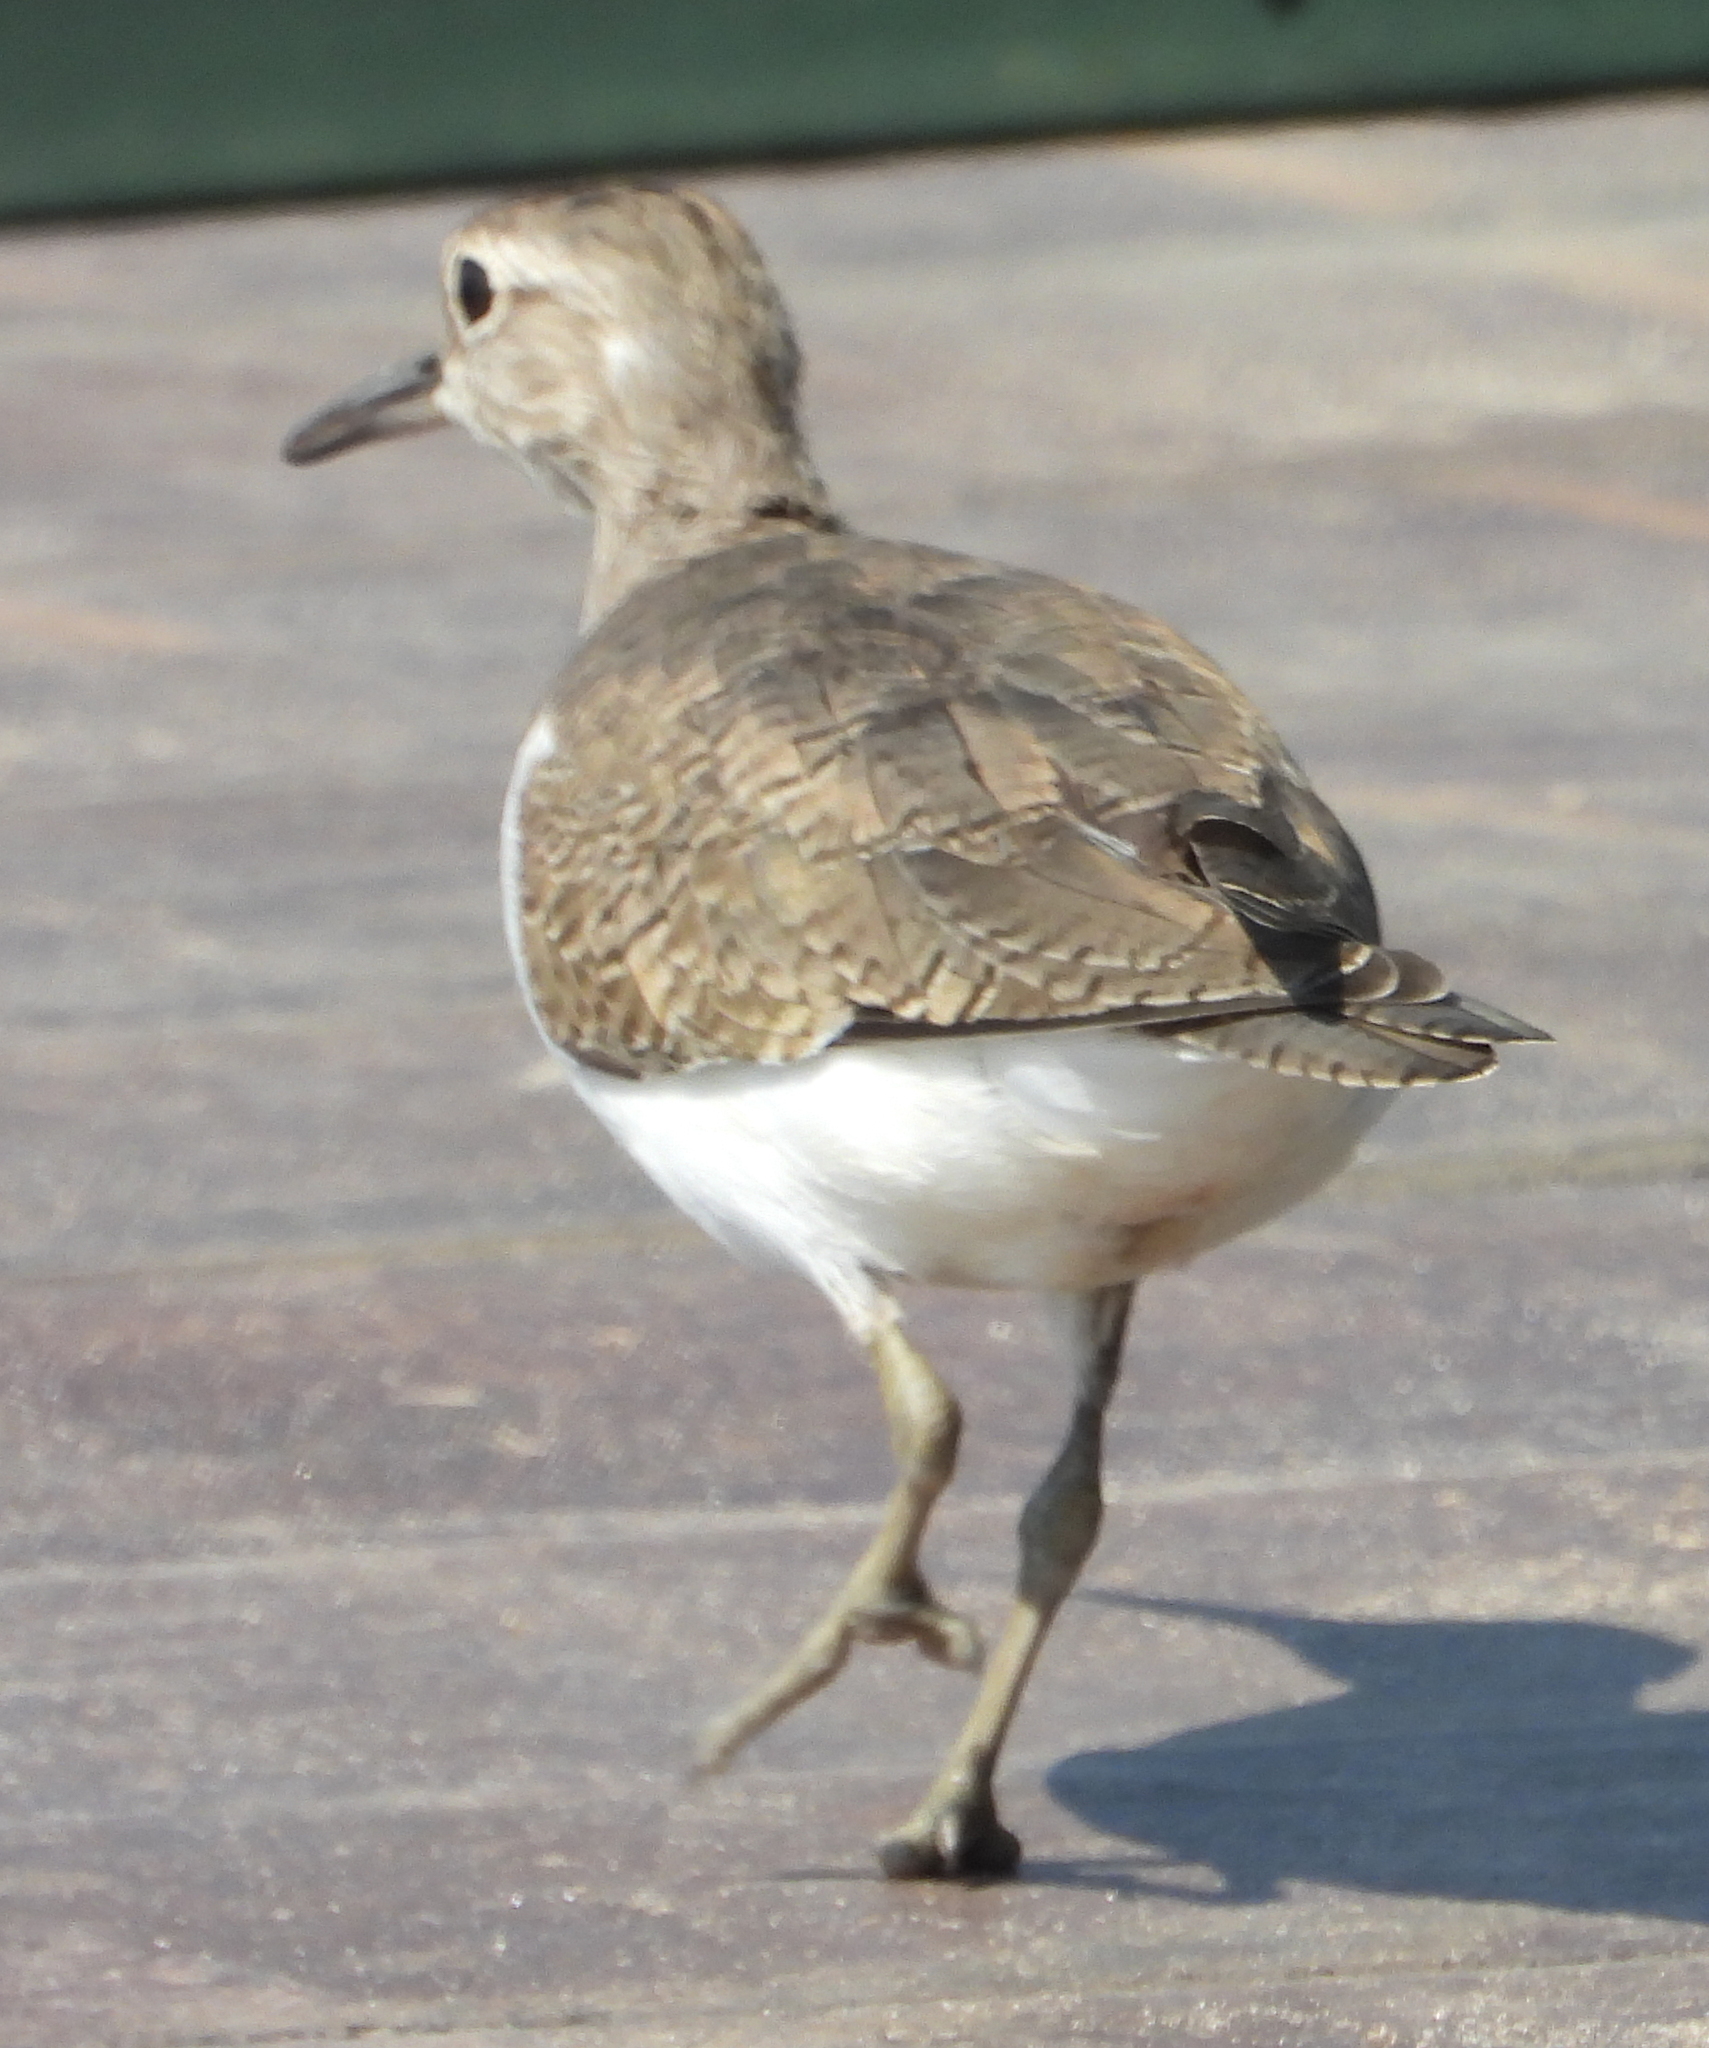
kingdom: Animalia
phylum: Chordata
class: Aves
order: Charadriiformes
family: Scolopacidae
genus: Actitis
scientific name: Actitis hypoleucos
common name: Common sandpiper
